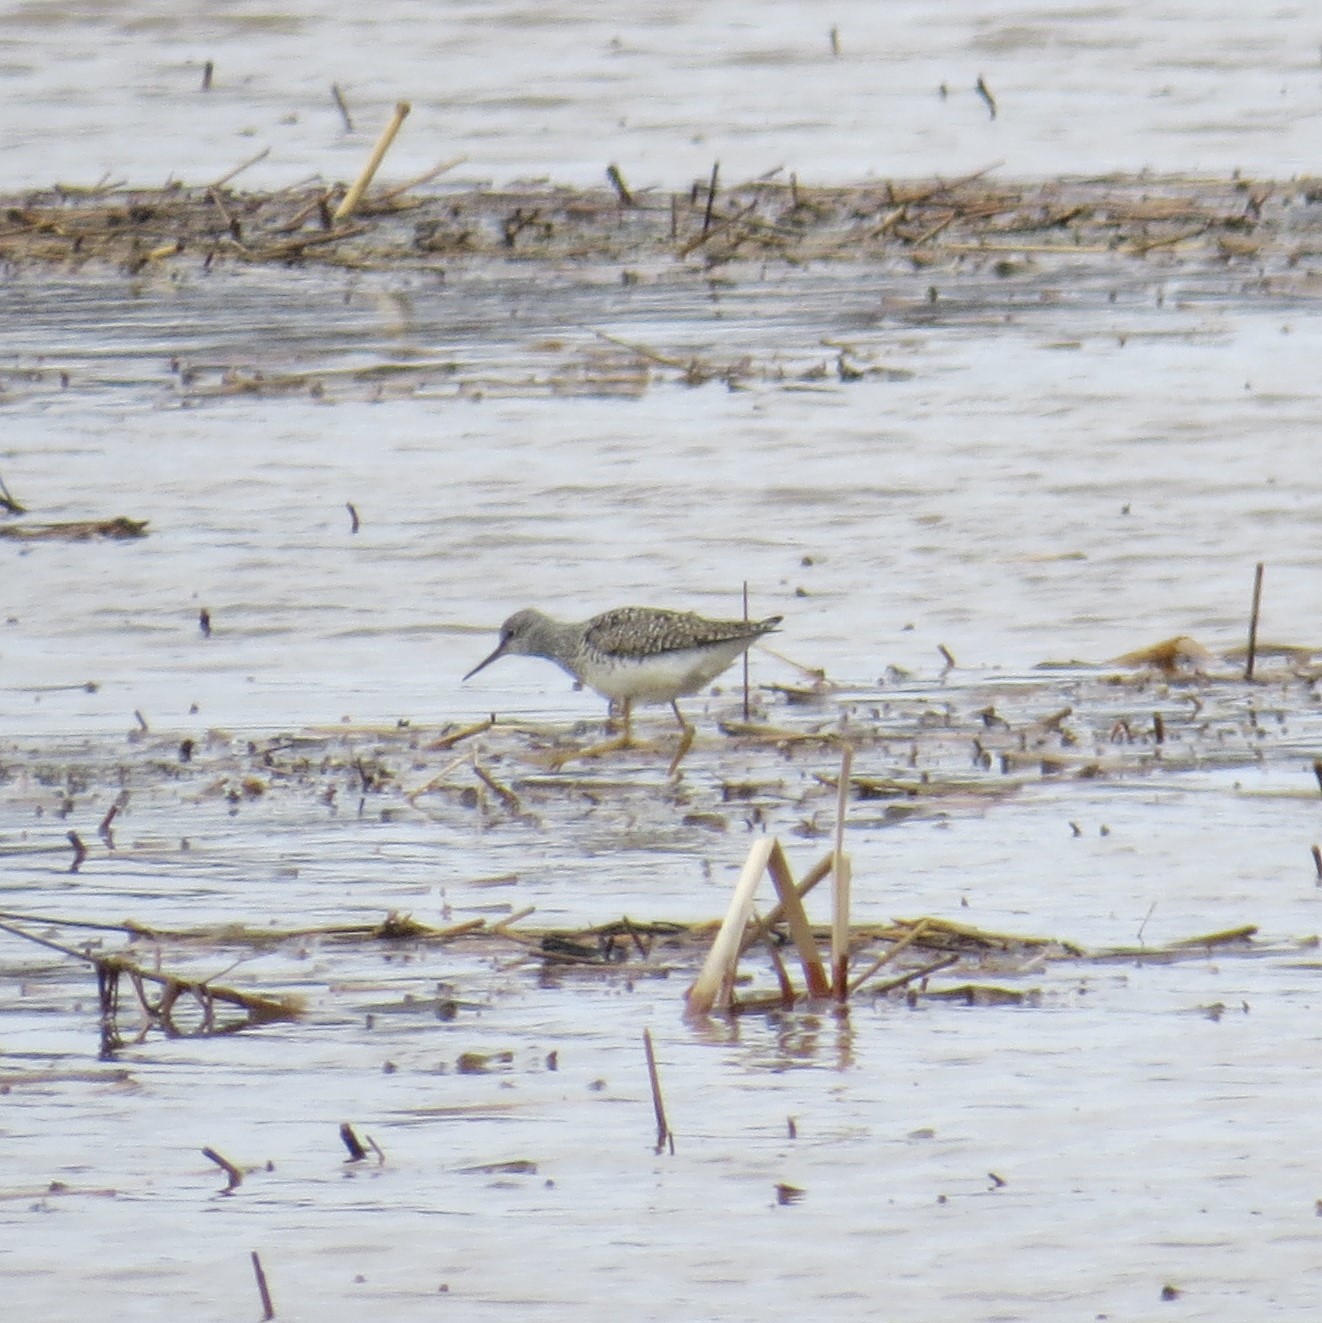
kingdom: Animalia
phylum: Chordata
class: Aves
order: Charadriiformes
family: Scolopacidae
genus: Tringa
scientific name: Tringa flavipes
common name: Lesser yellowlegs
